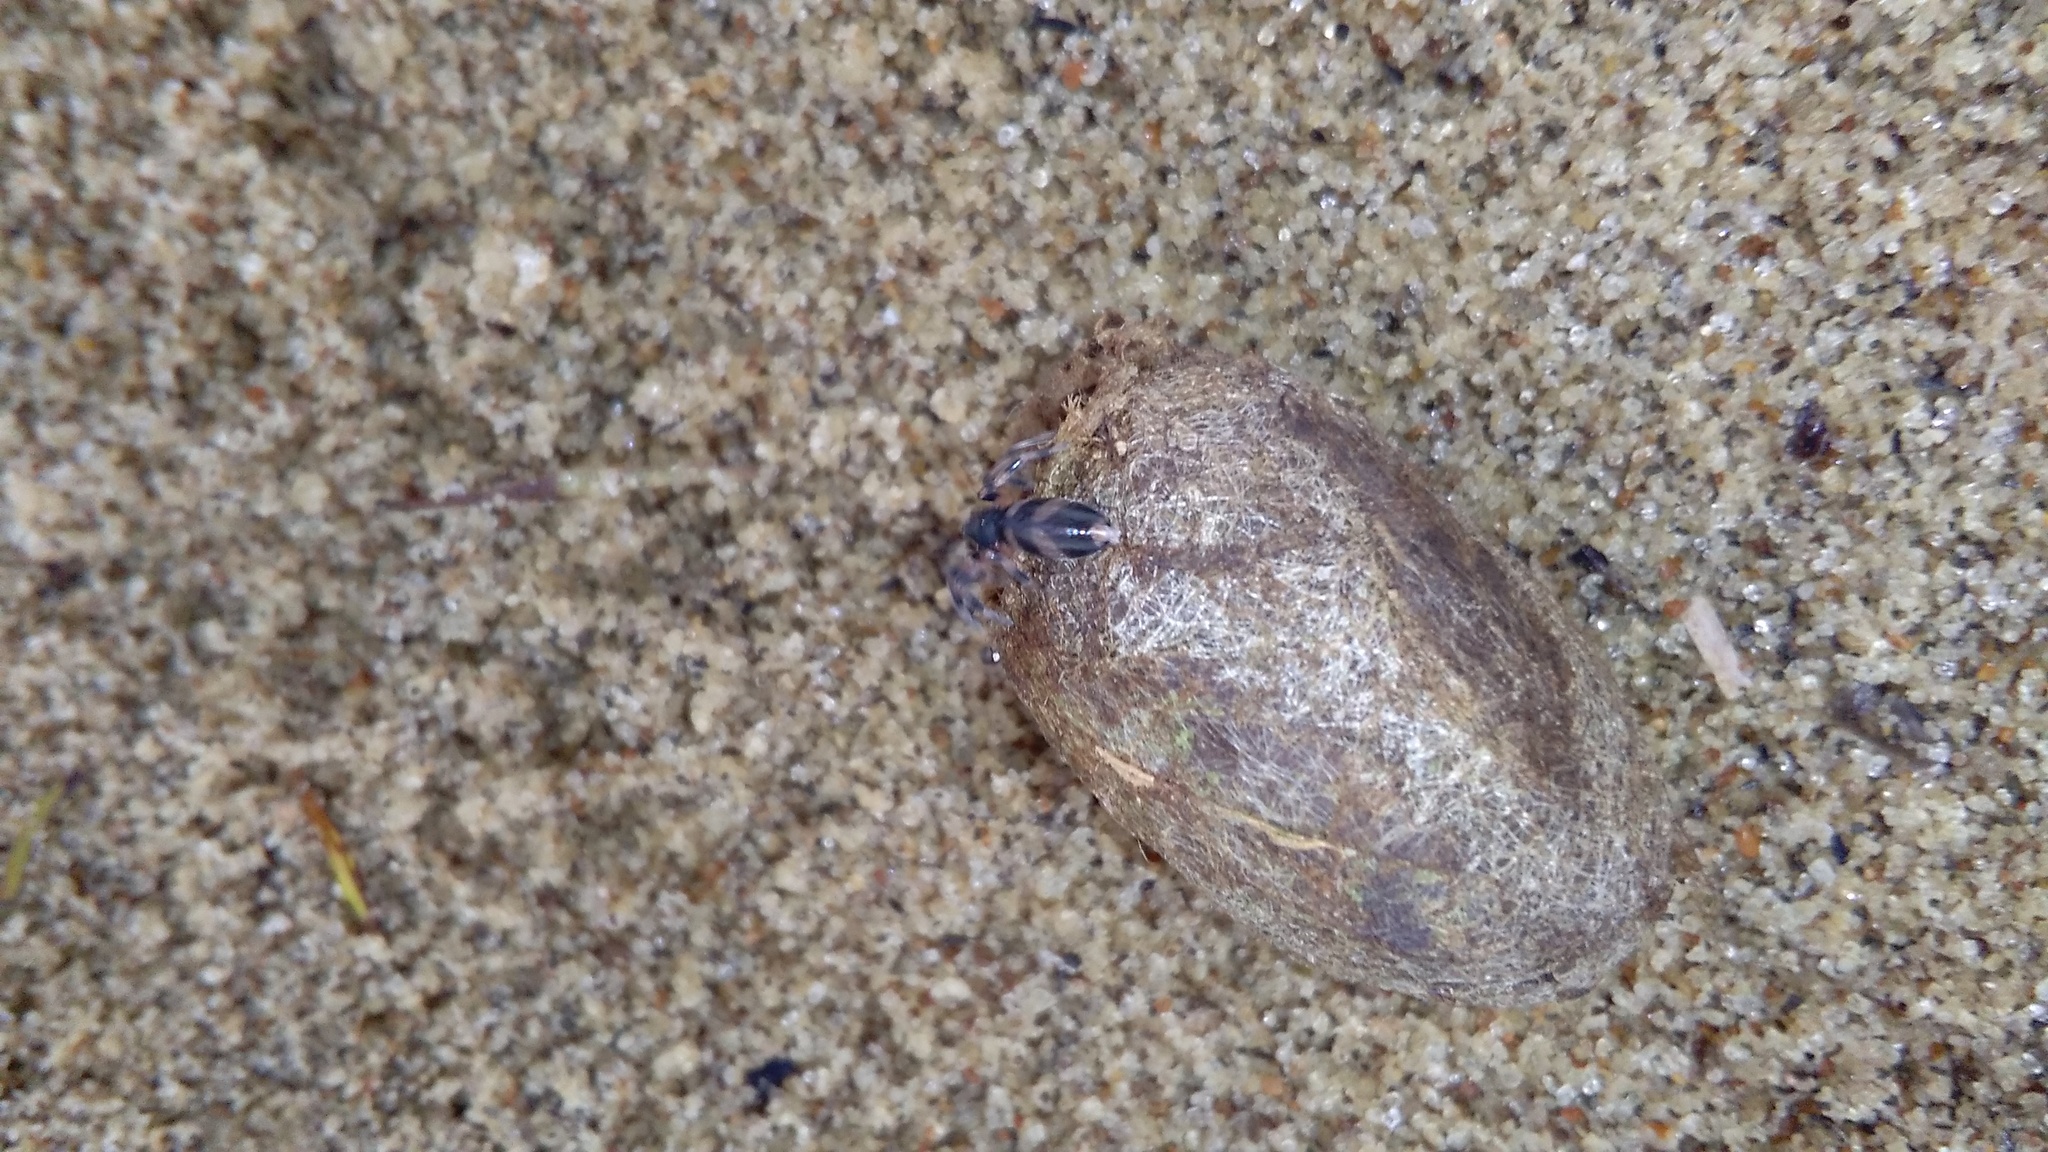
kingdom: Animalia
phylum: Arthropoda
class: Arachnida
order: Araneae
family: Lamponidae
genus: Lampona
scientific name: Lampona murina
